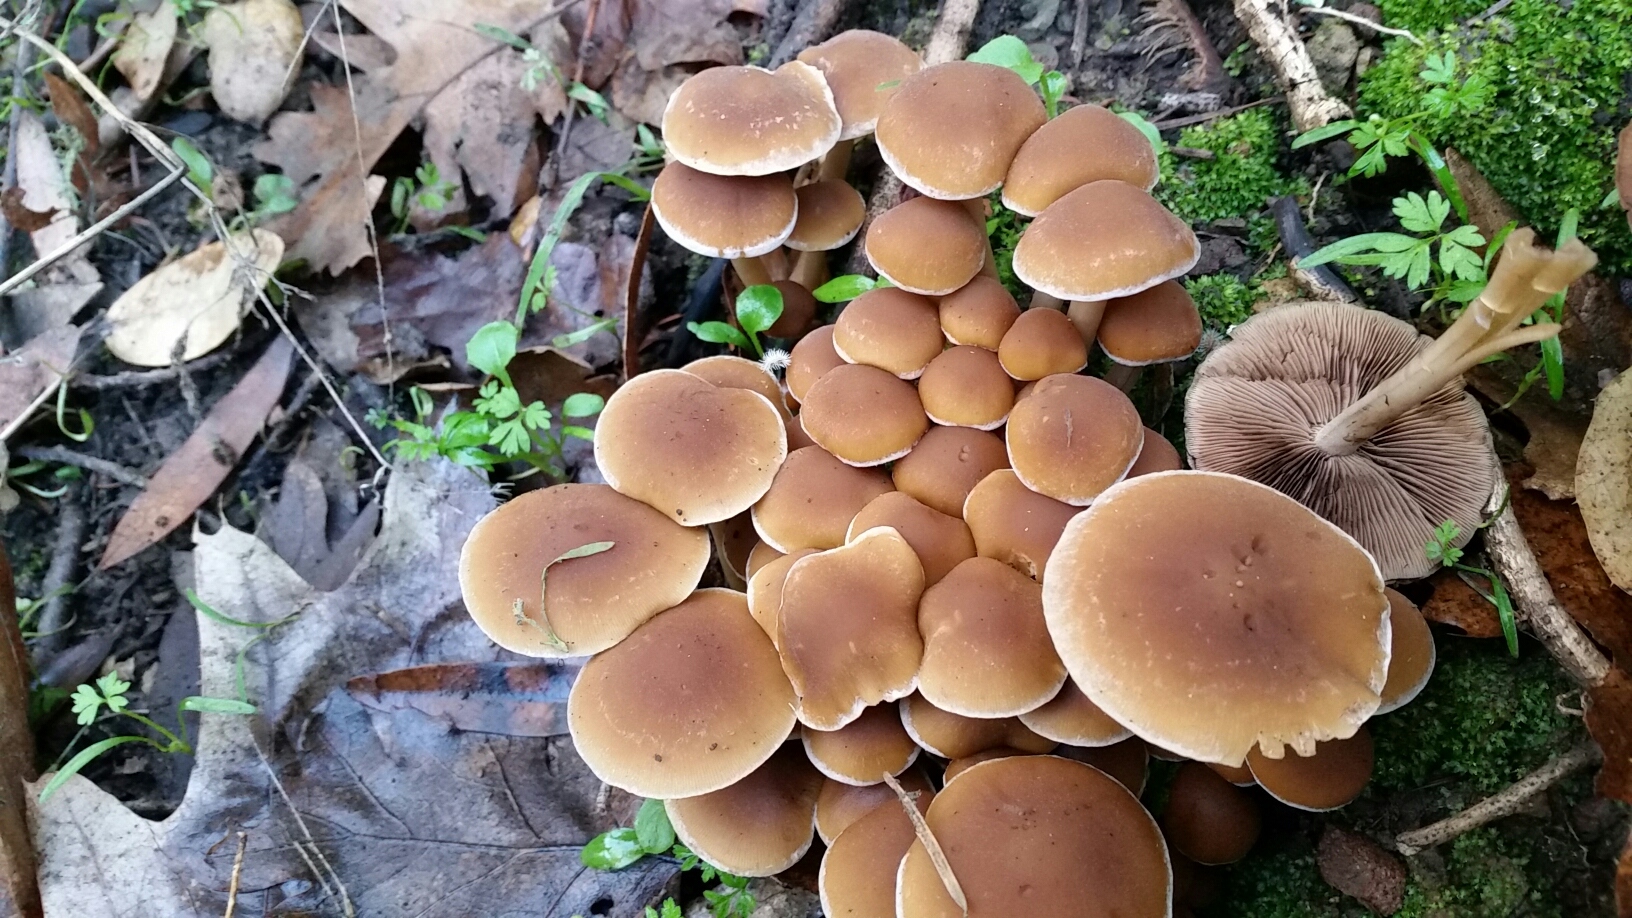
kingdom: Fungi
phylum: Basidiomycota
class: Agaricomycetes
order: Agaricales
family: Psathyrellaceae
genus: Psathyrella
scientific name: Psathyrella piluliformis
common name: Common stump brittlestem
